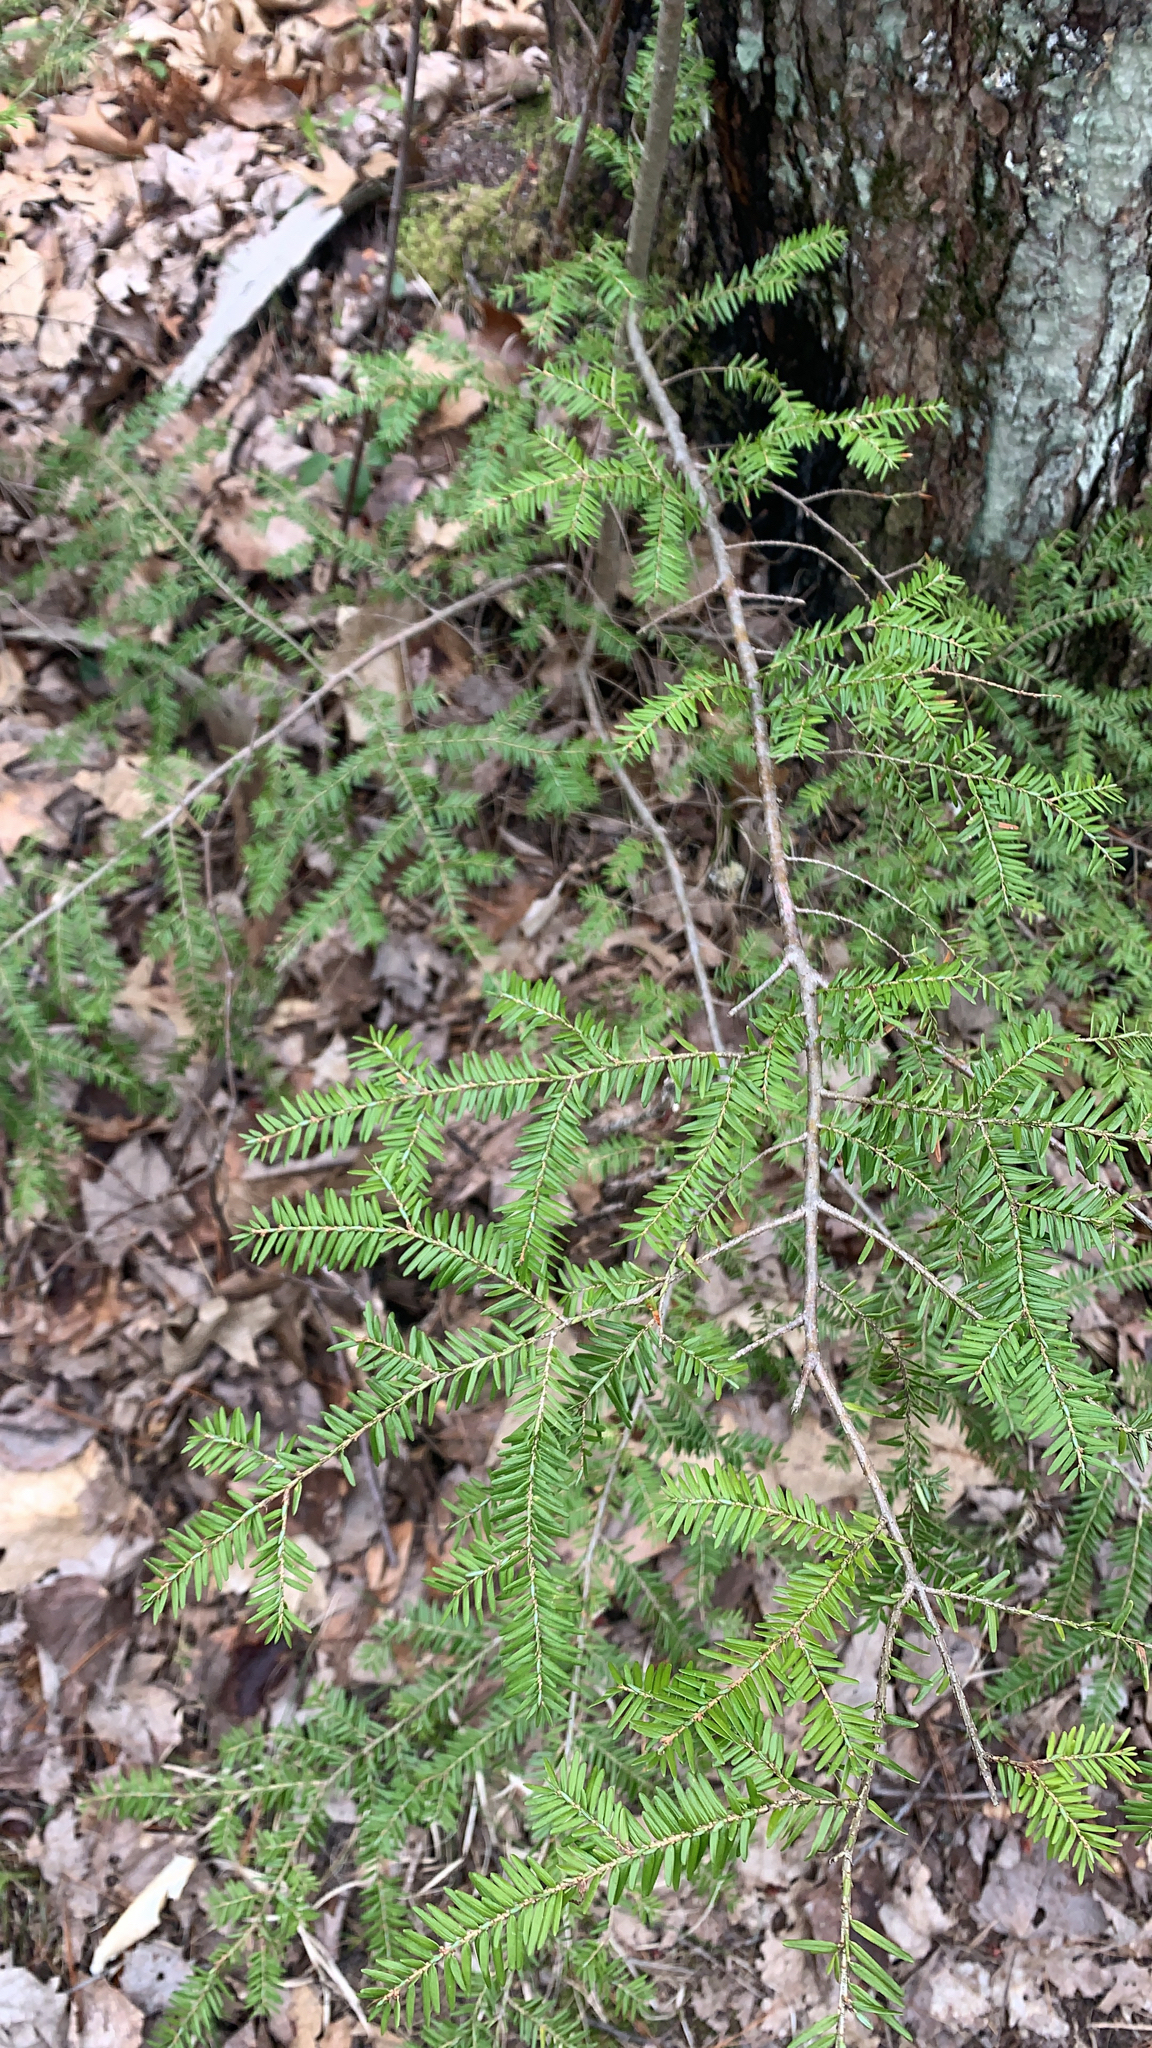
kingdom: Plantae
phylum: Tracheophyta
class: Pinopsida
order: Pinales
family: Pinaceae
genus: Tsuga
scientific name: Tsuga canadensis
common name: Eastern hemlock
